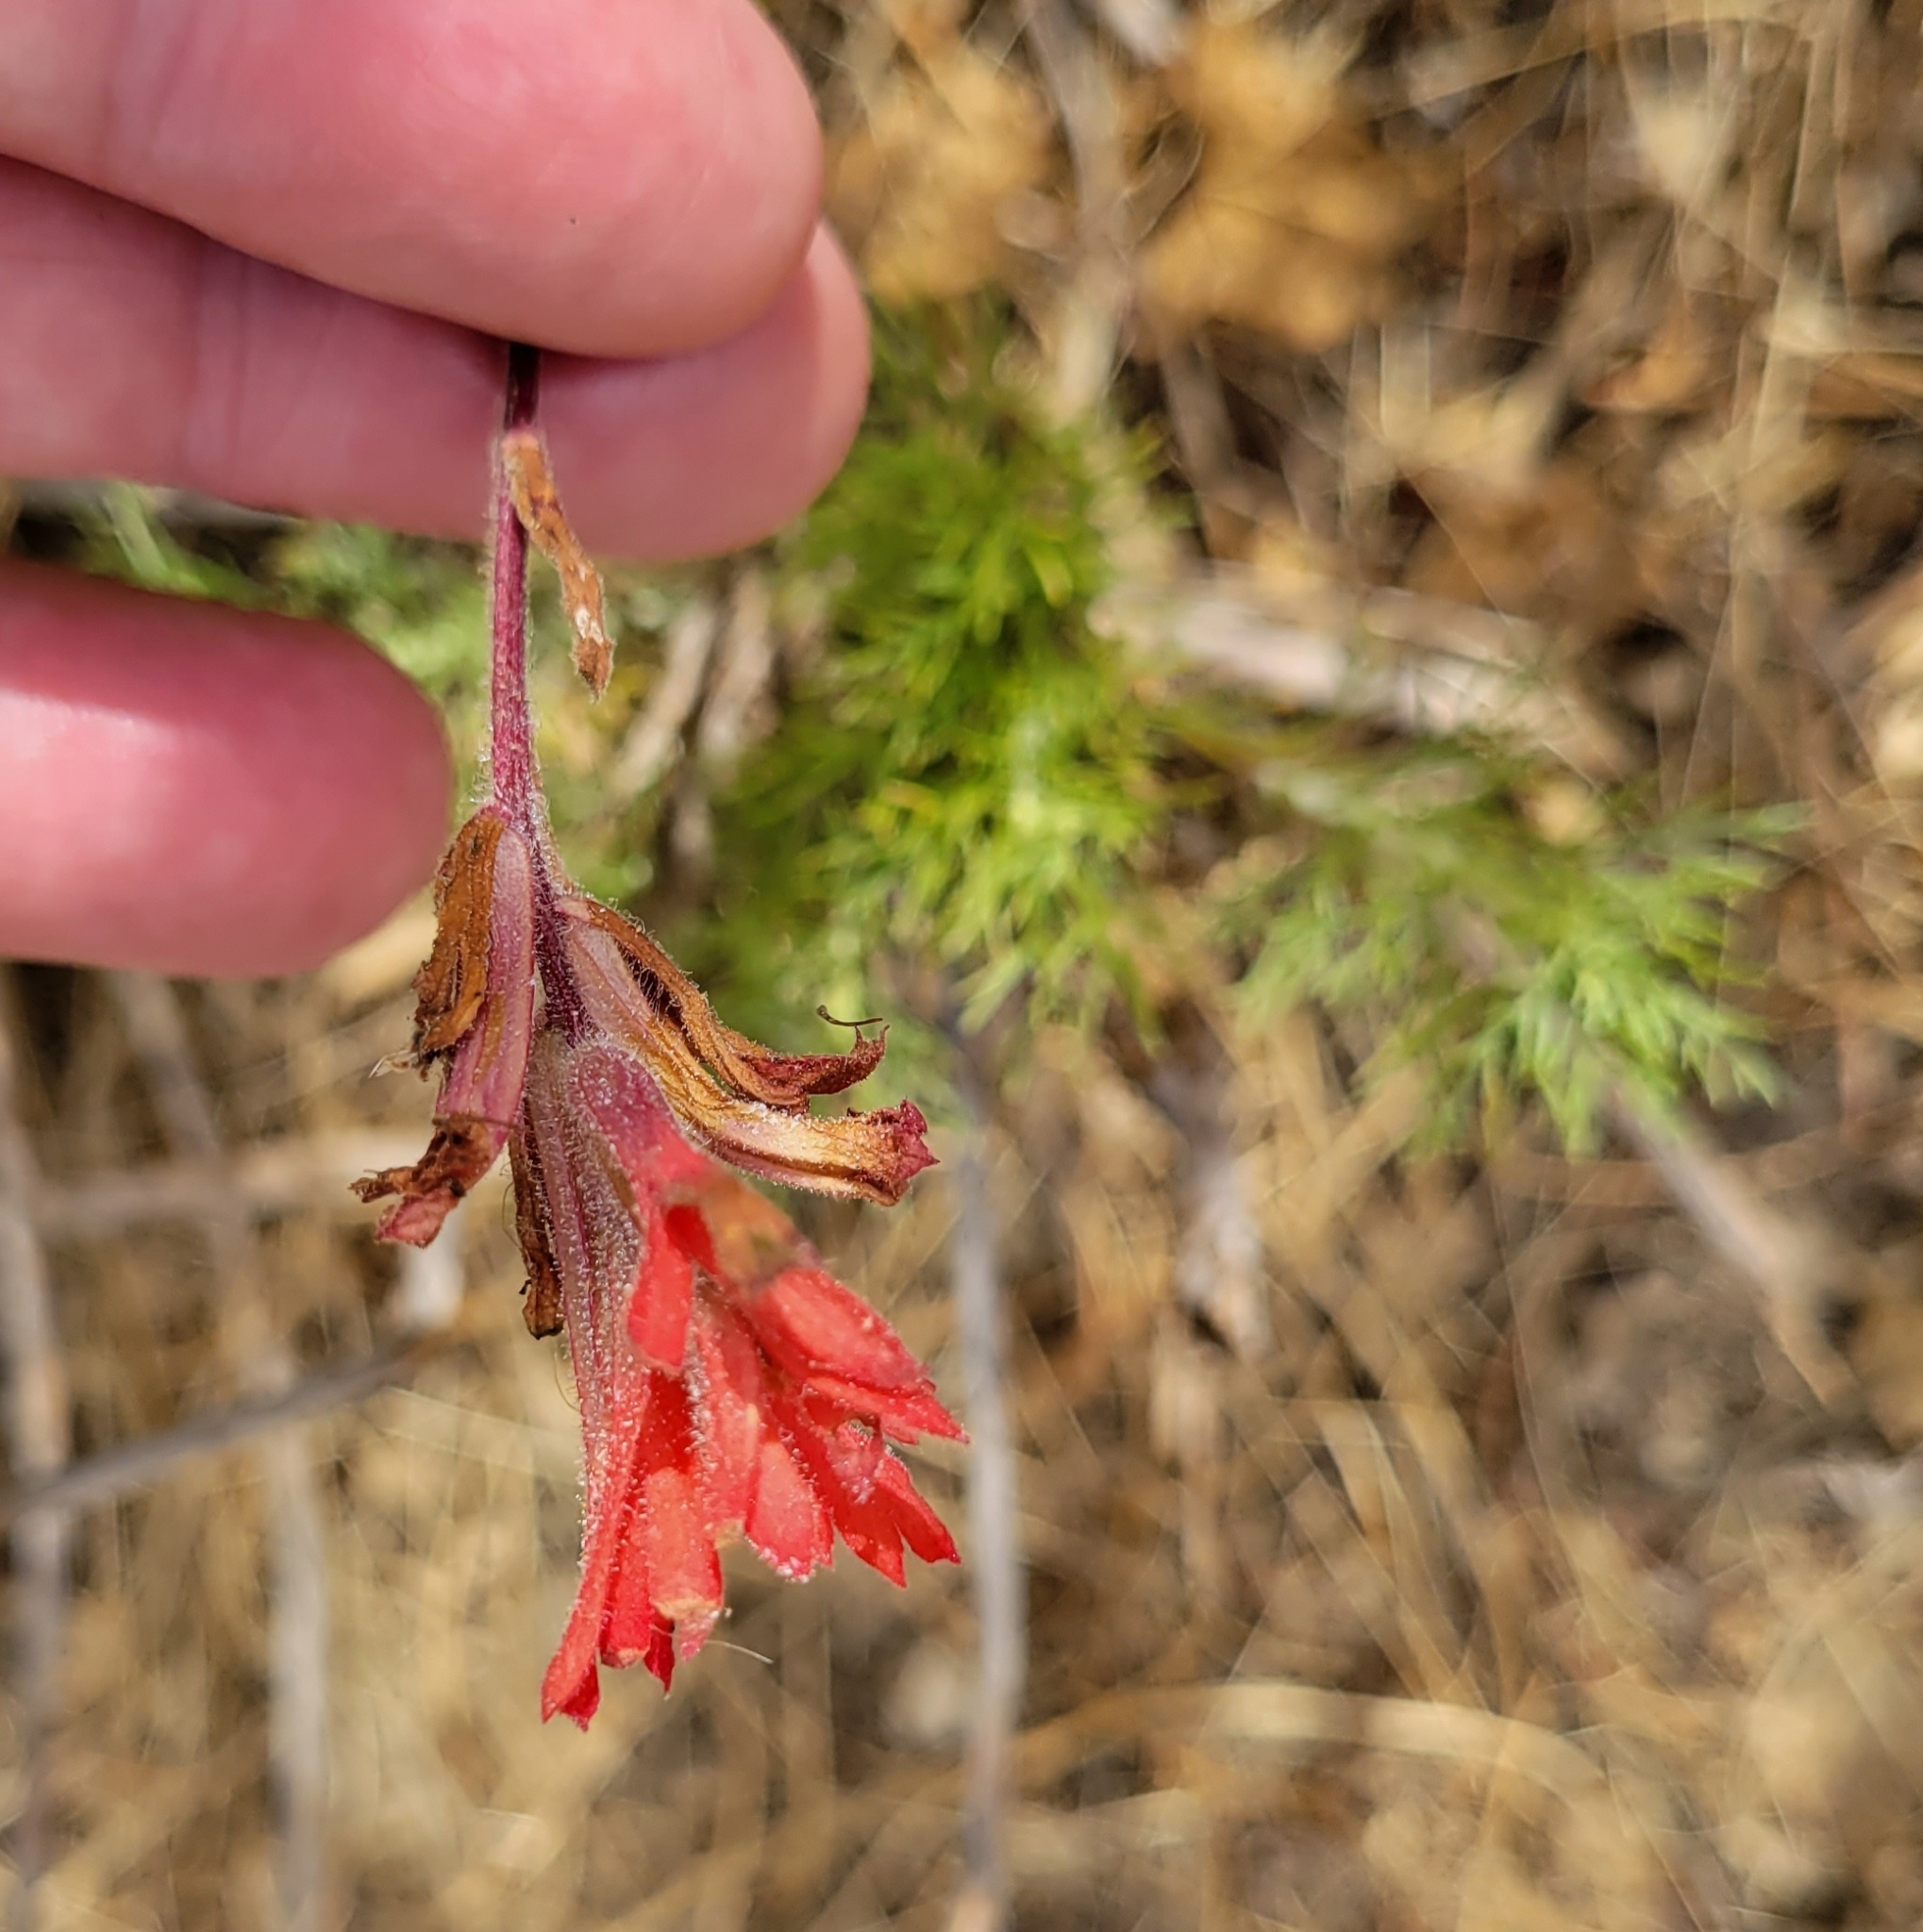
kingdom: Plantae
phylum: Tracheophyta
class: Magnoliopsida
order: Lamiales
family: Orobanchaceae
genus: Castilleja
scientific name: Castilleja affinis
